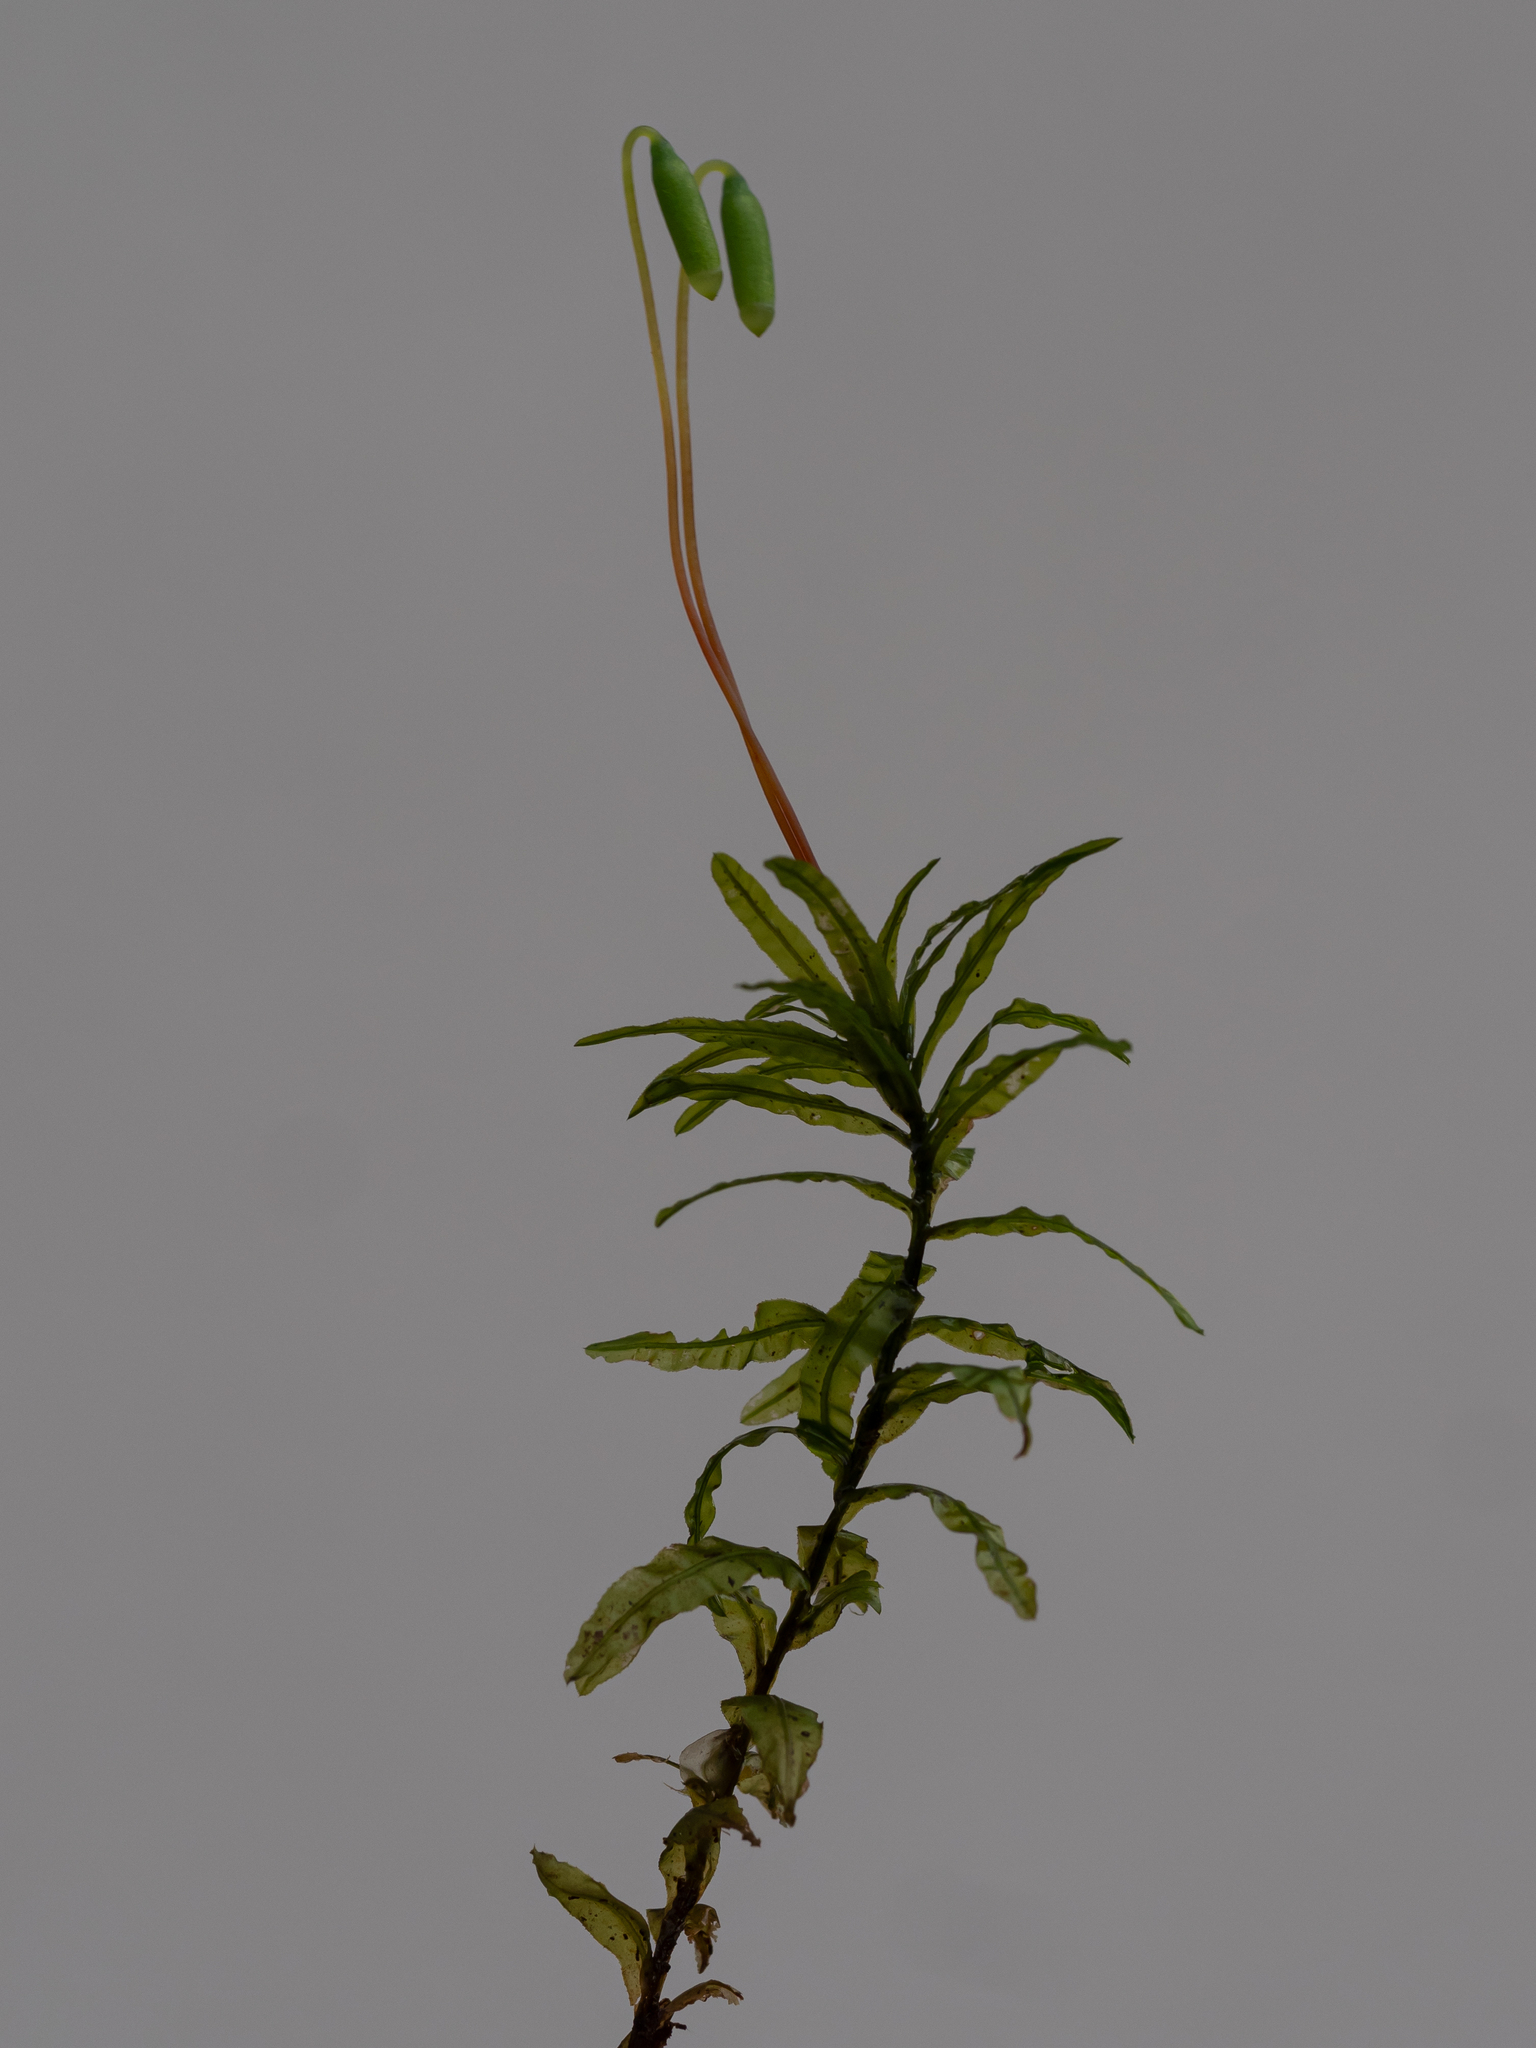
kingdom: Plantae
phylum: Bryophyta
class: Bryopsida
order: Bryales
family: Mniaceae
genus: Plagiomnium
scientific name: Plagiomnium undulatum
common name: Hart's-tongue thyme-moss
